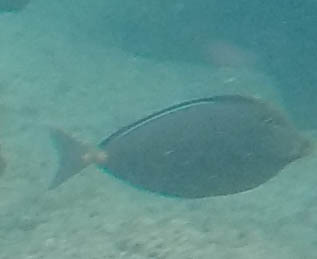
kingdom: Animalia
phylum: Chordata
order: Perciformes
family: Acanthuridae
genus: Naso
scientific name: Naso lituratus
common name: Orangespine unicornfish
